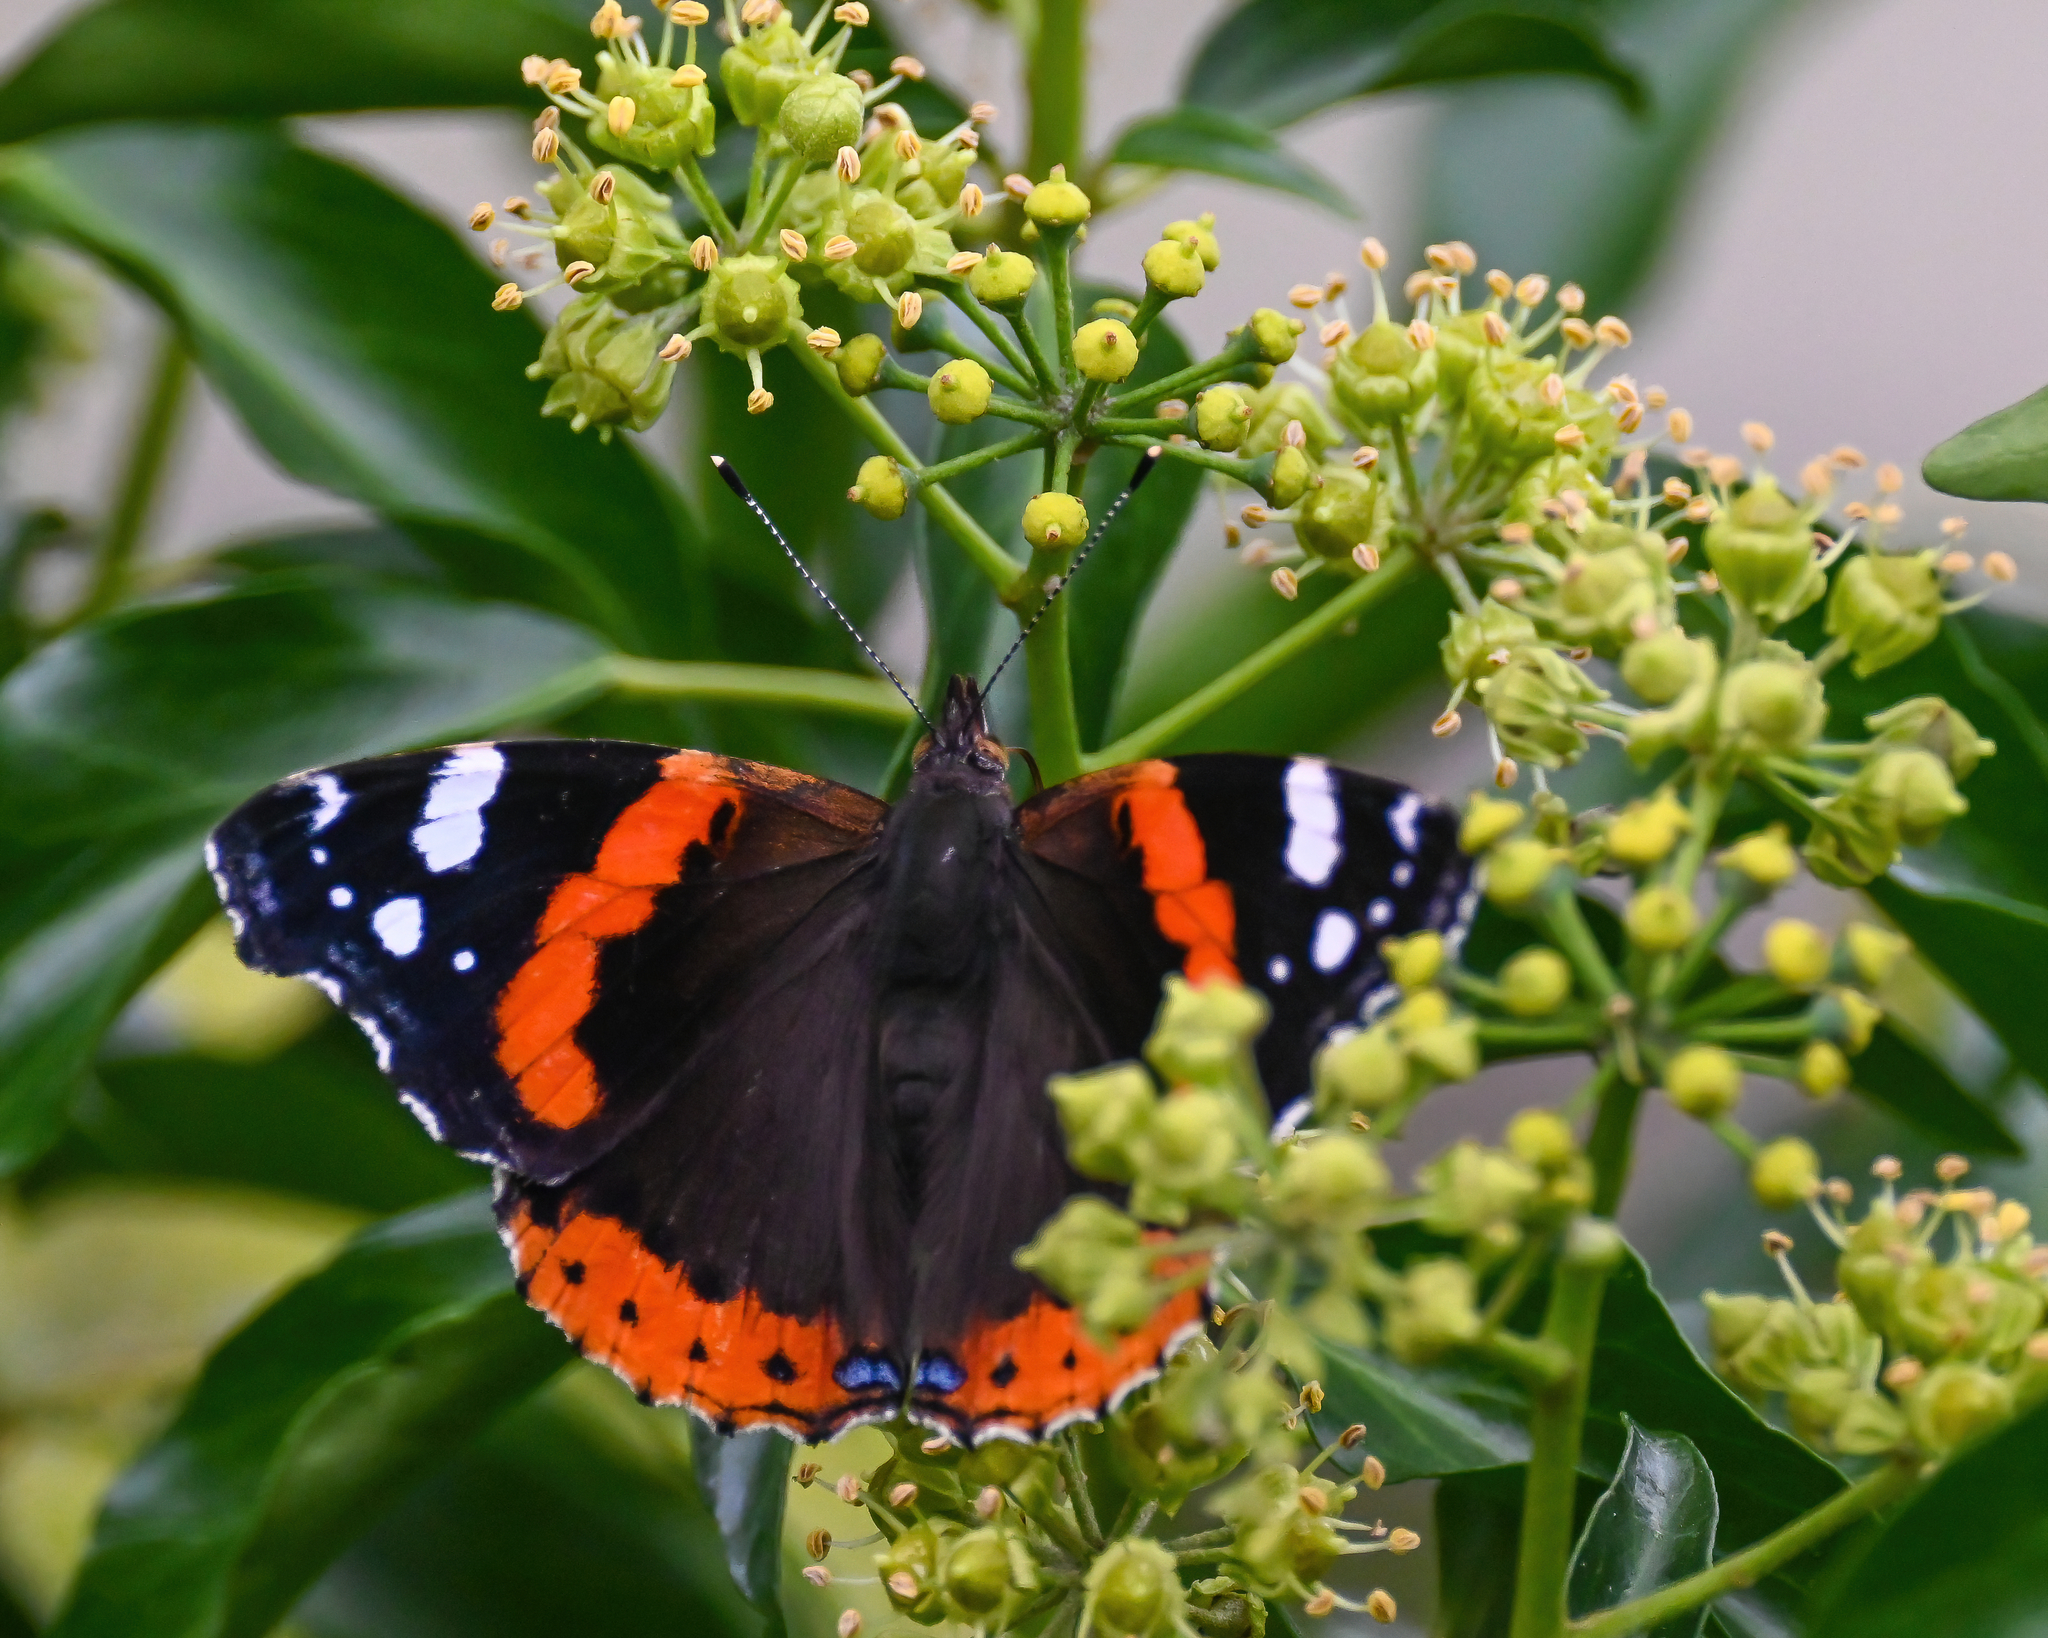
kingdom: Animalia
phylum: Arthropoda
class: Insecta
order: Lepidoptera
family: Nymphalidae
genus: Vanessa
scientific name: Vanessa atalanta
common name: Red admiral
